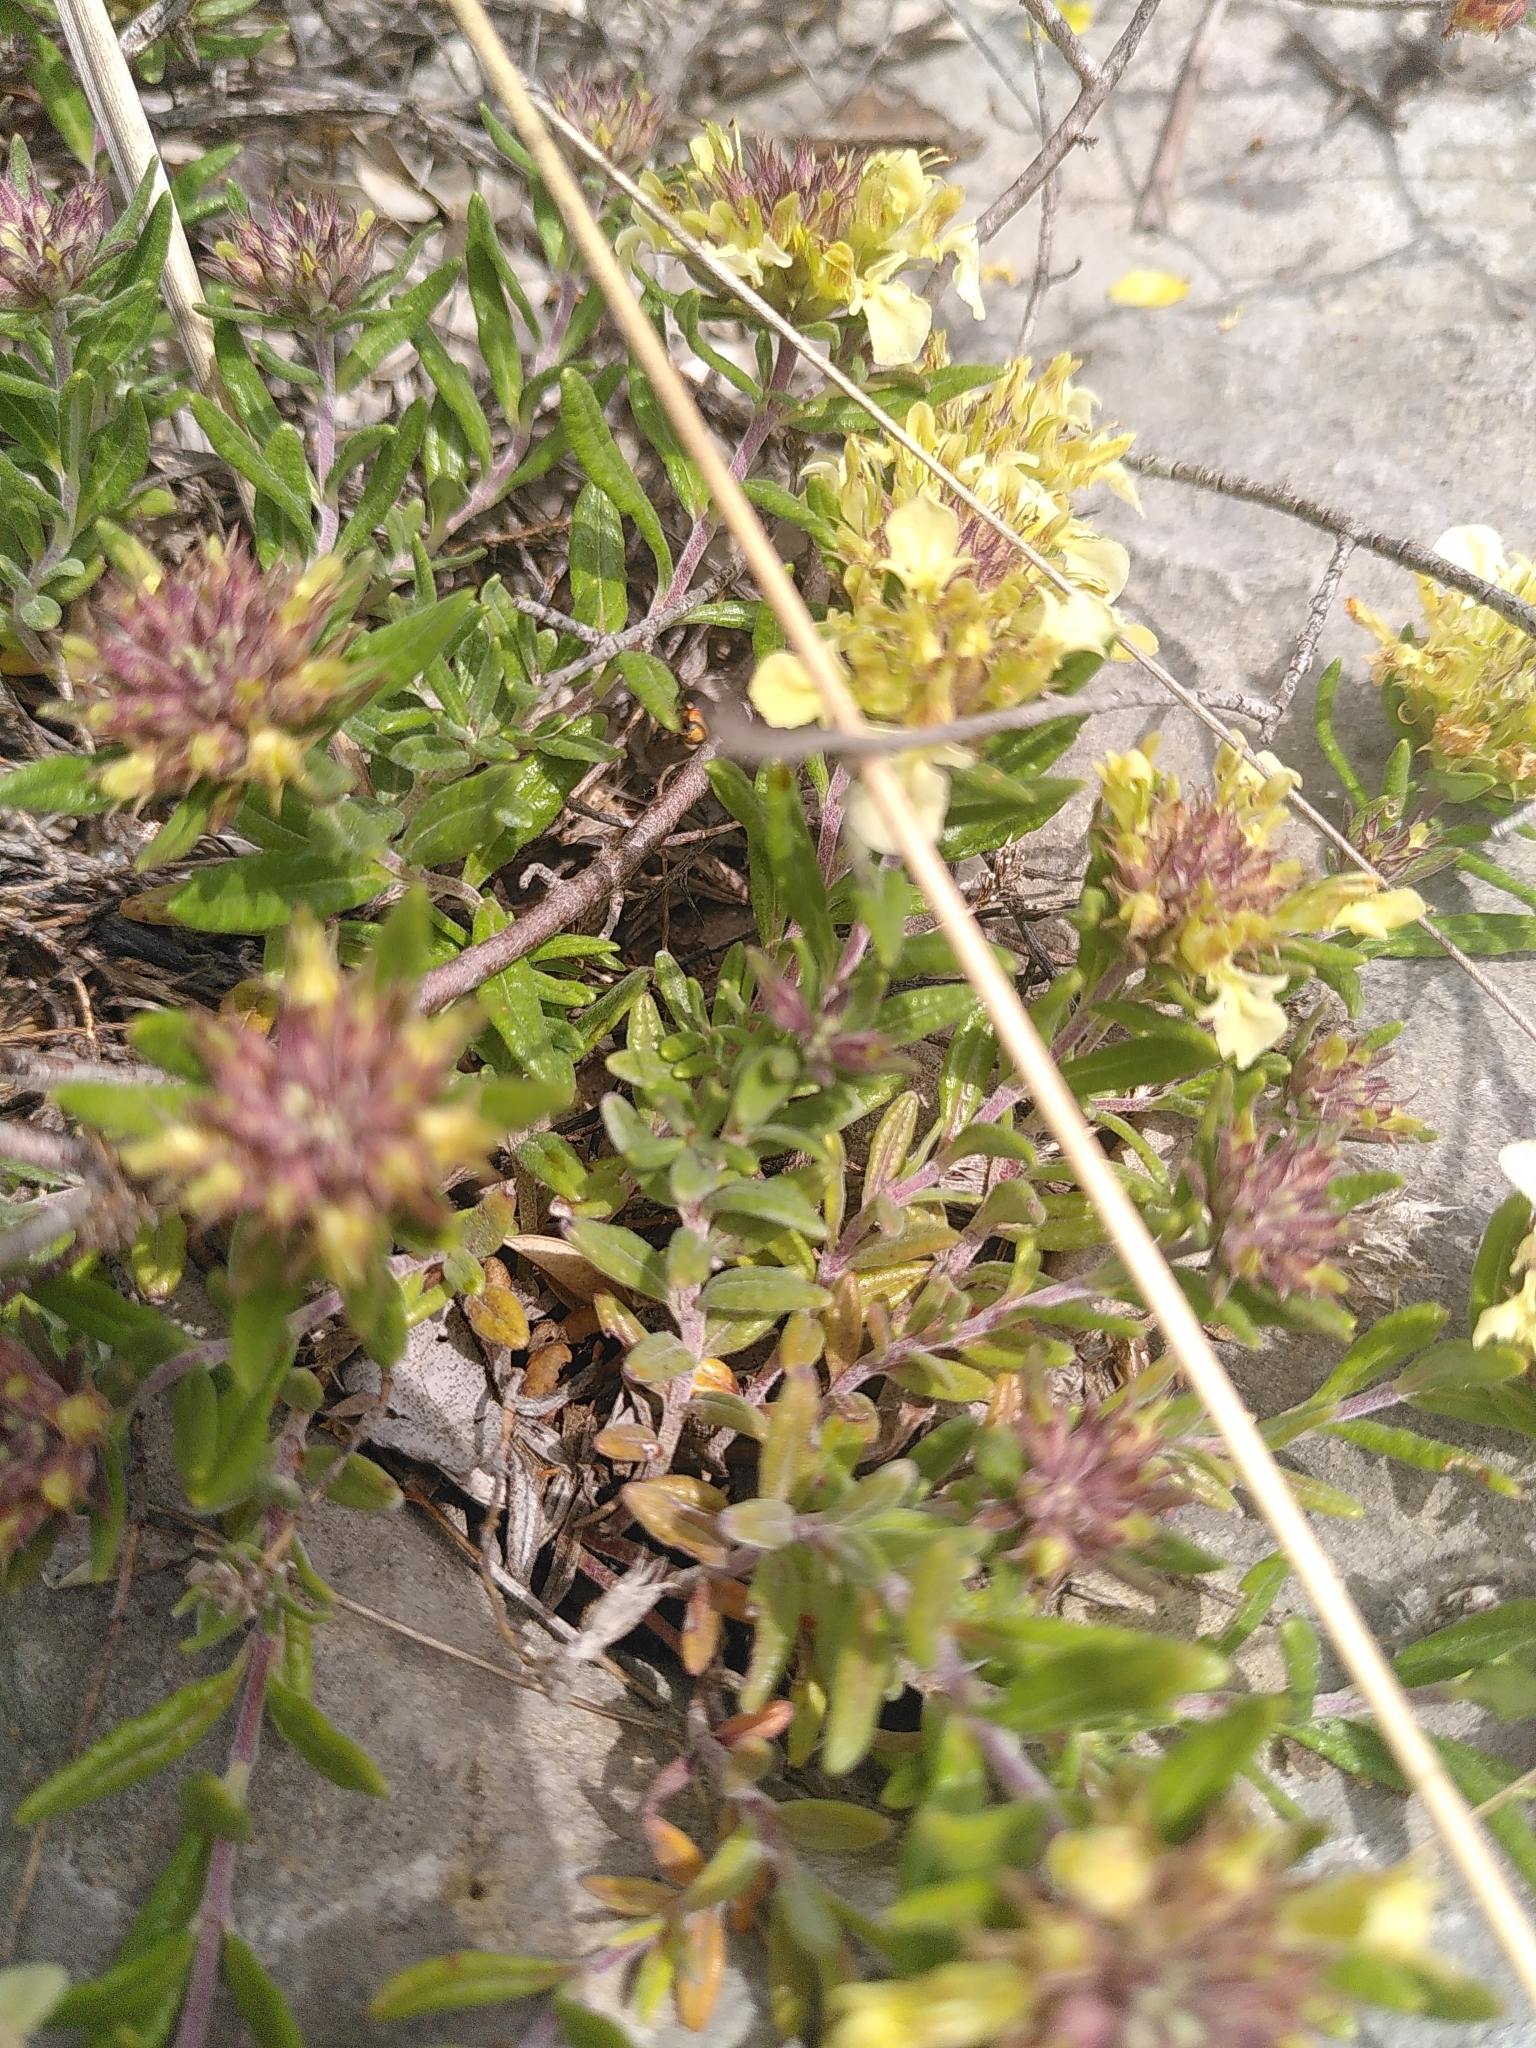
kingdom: Plantae
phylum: Tracheophyta
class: Magnoliopsida
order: Lamiales
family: Lamiaceae
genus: Teucrium
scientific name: Teucrium montanum
